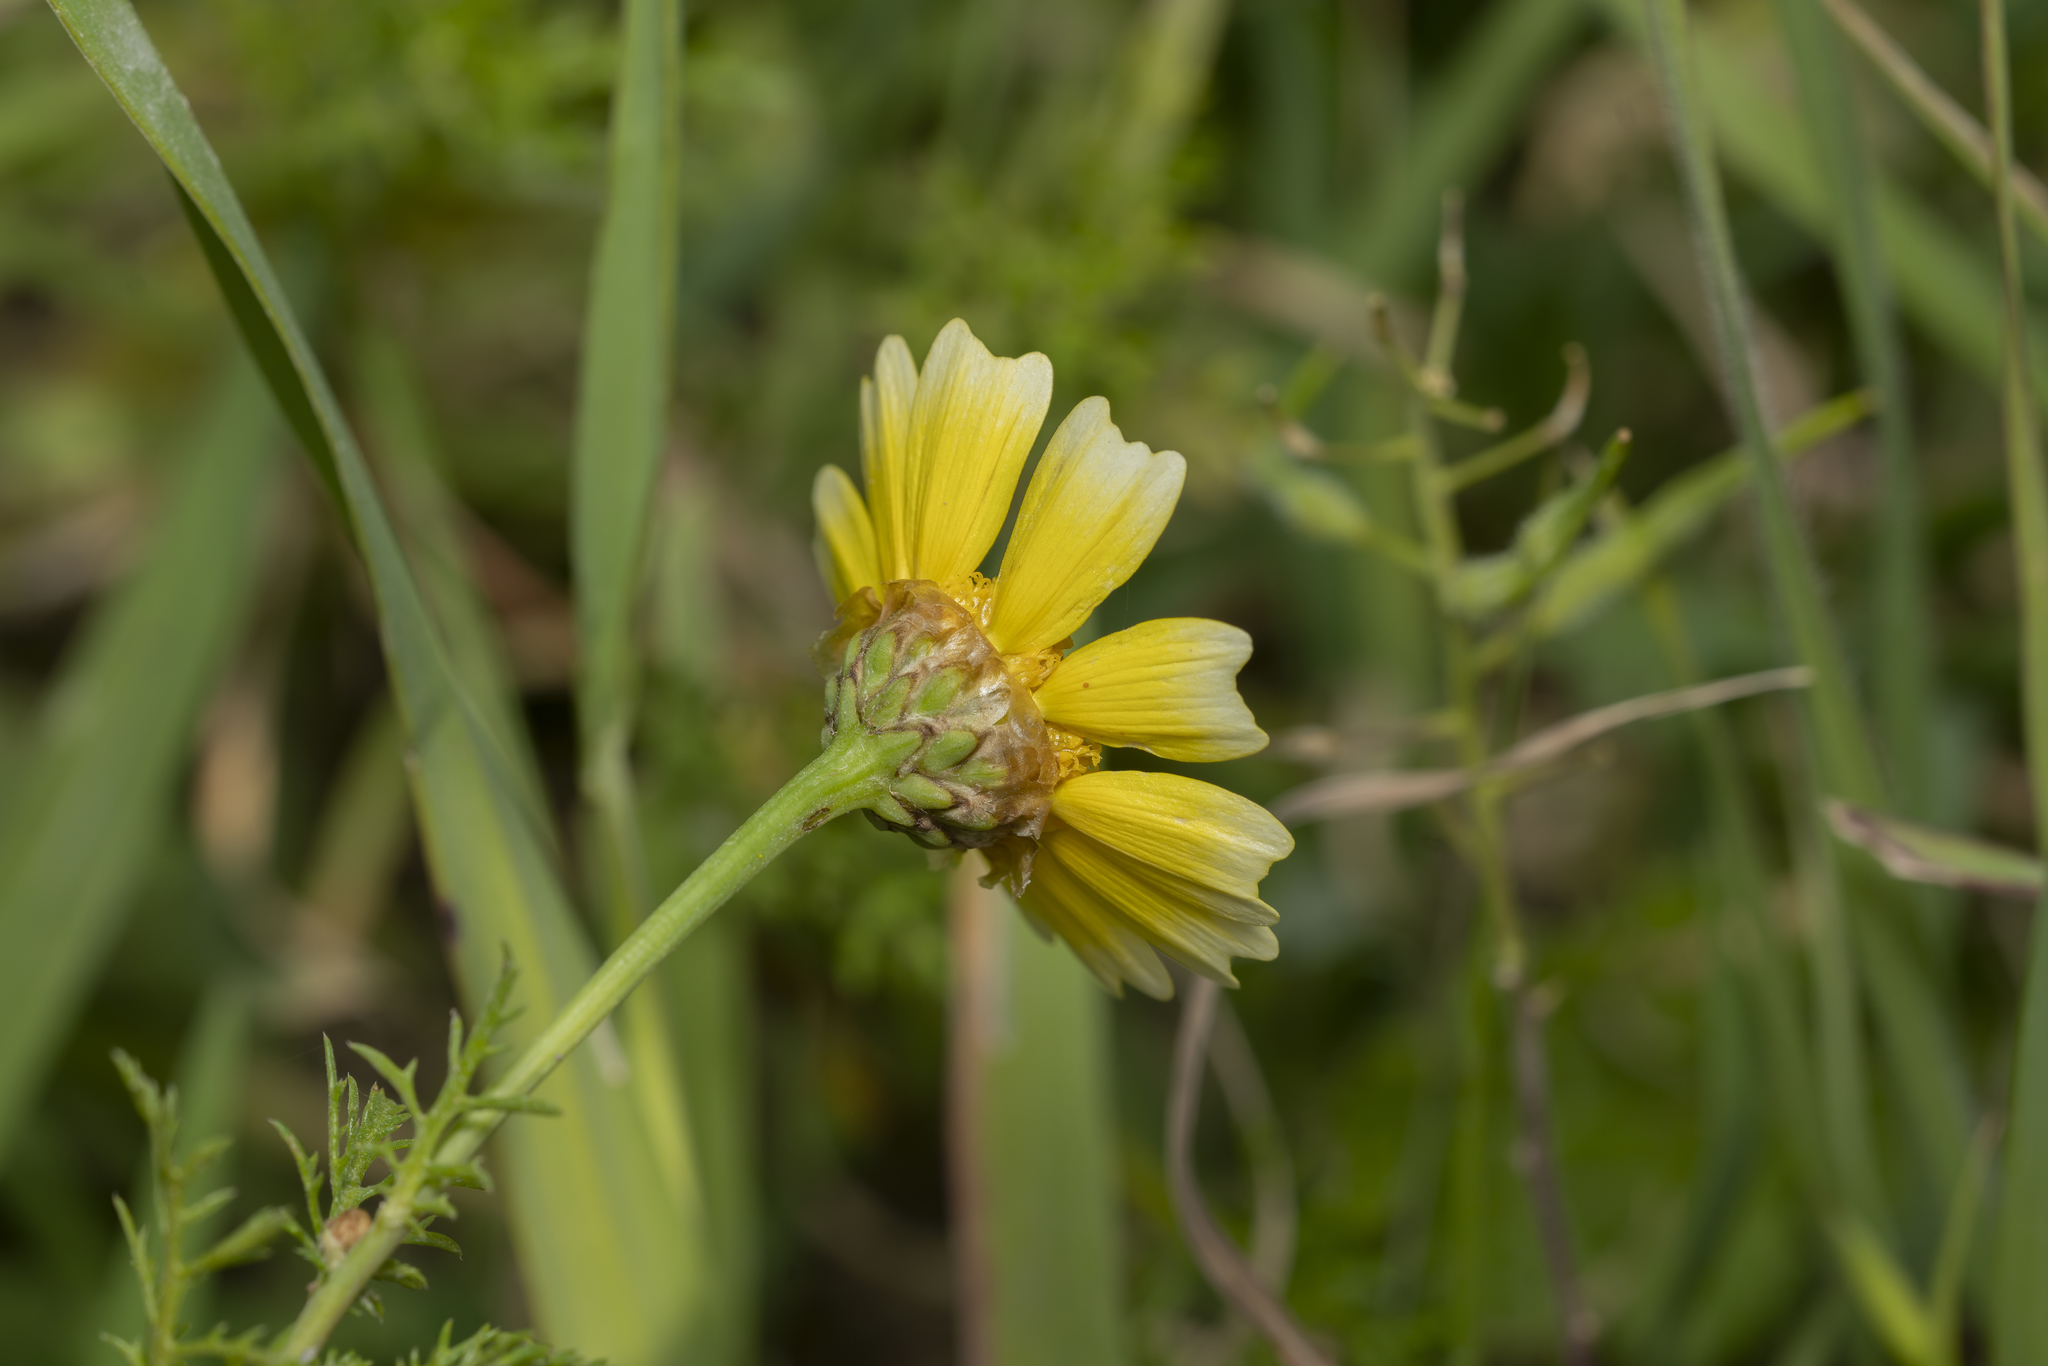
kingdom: Plantae
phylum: Tracheophyta
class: Magnoliopsida
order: Asterales
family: Asteraceae
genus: Glebionis
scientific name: Glebionis coronaria
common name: Crowndaisy
